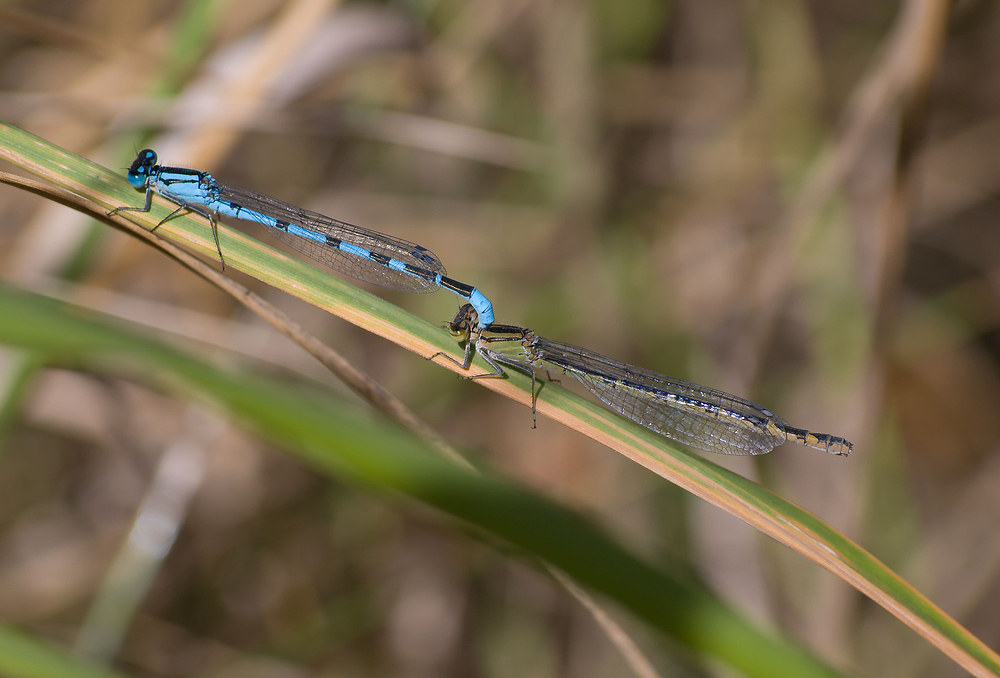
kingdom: Animalia
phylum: Arthropoda
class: Insecta
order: Odonata
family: Coenagrionidae
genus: Enallagma
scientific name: Enallagma cyathigerum
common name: Common blue damselfly
